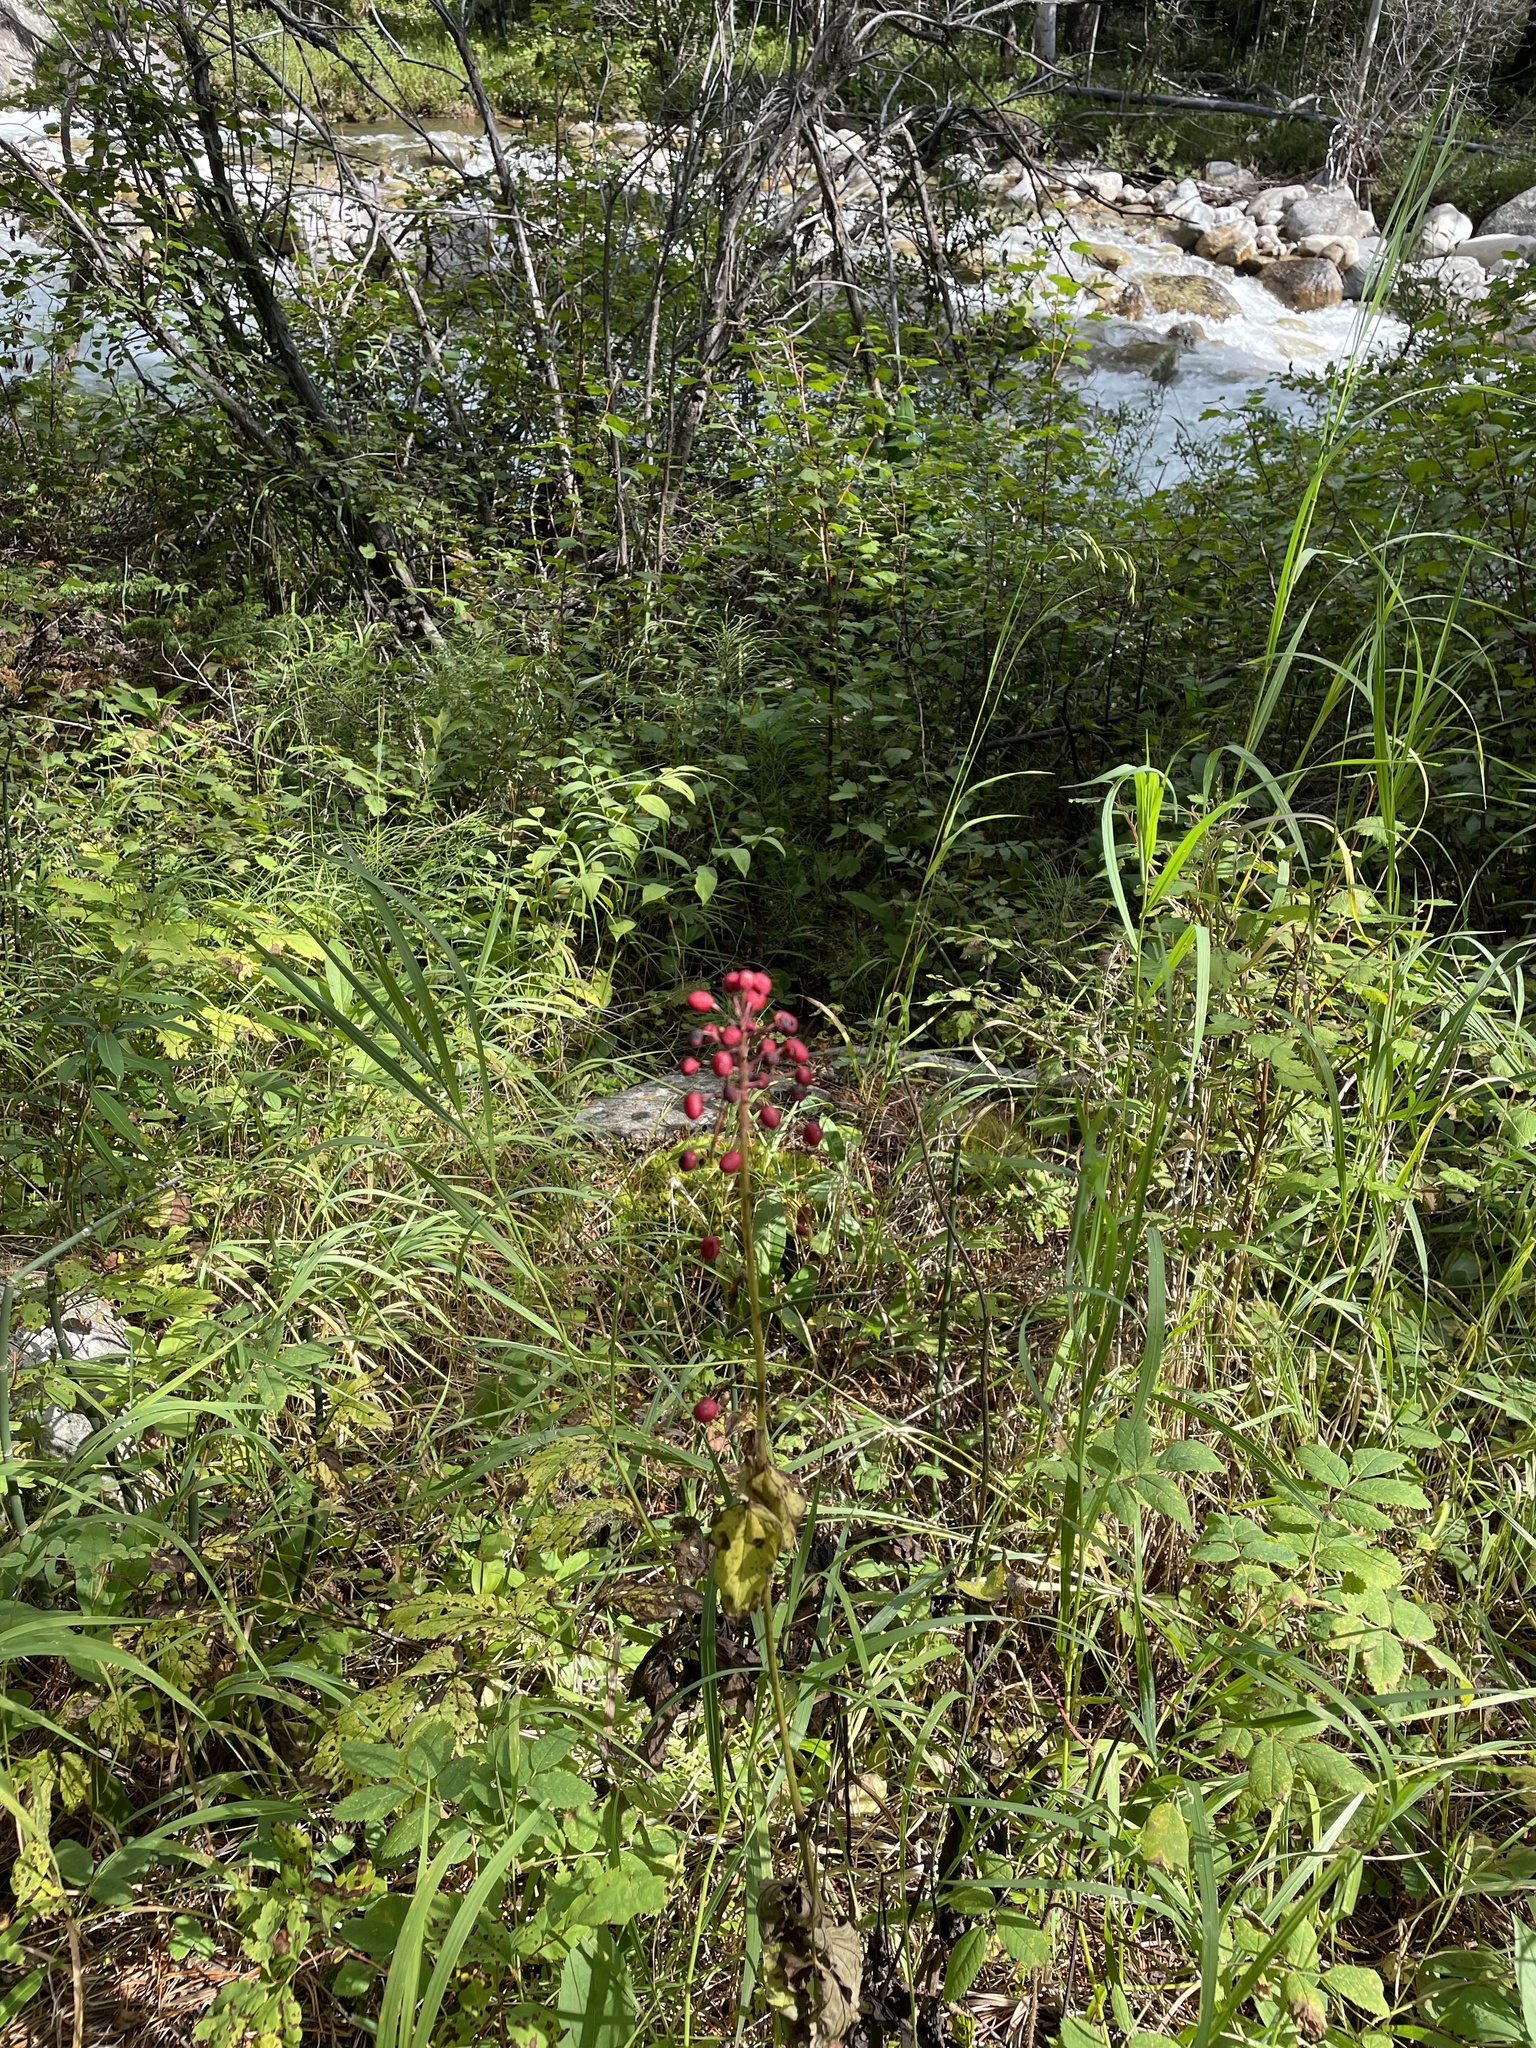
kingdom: Plantae
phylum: Tracheophyta
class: Magnoliopsida
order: Ranunculales
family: Ranunculaceae
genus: Actaea
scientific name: Actaea rubra
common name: Red baneberry
